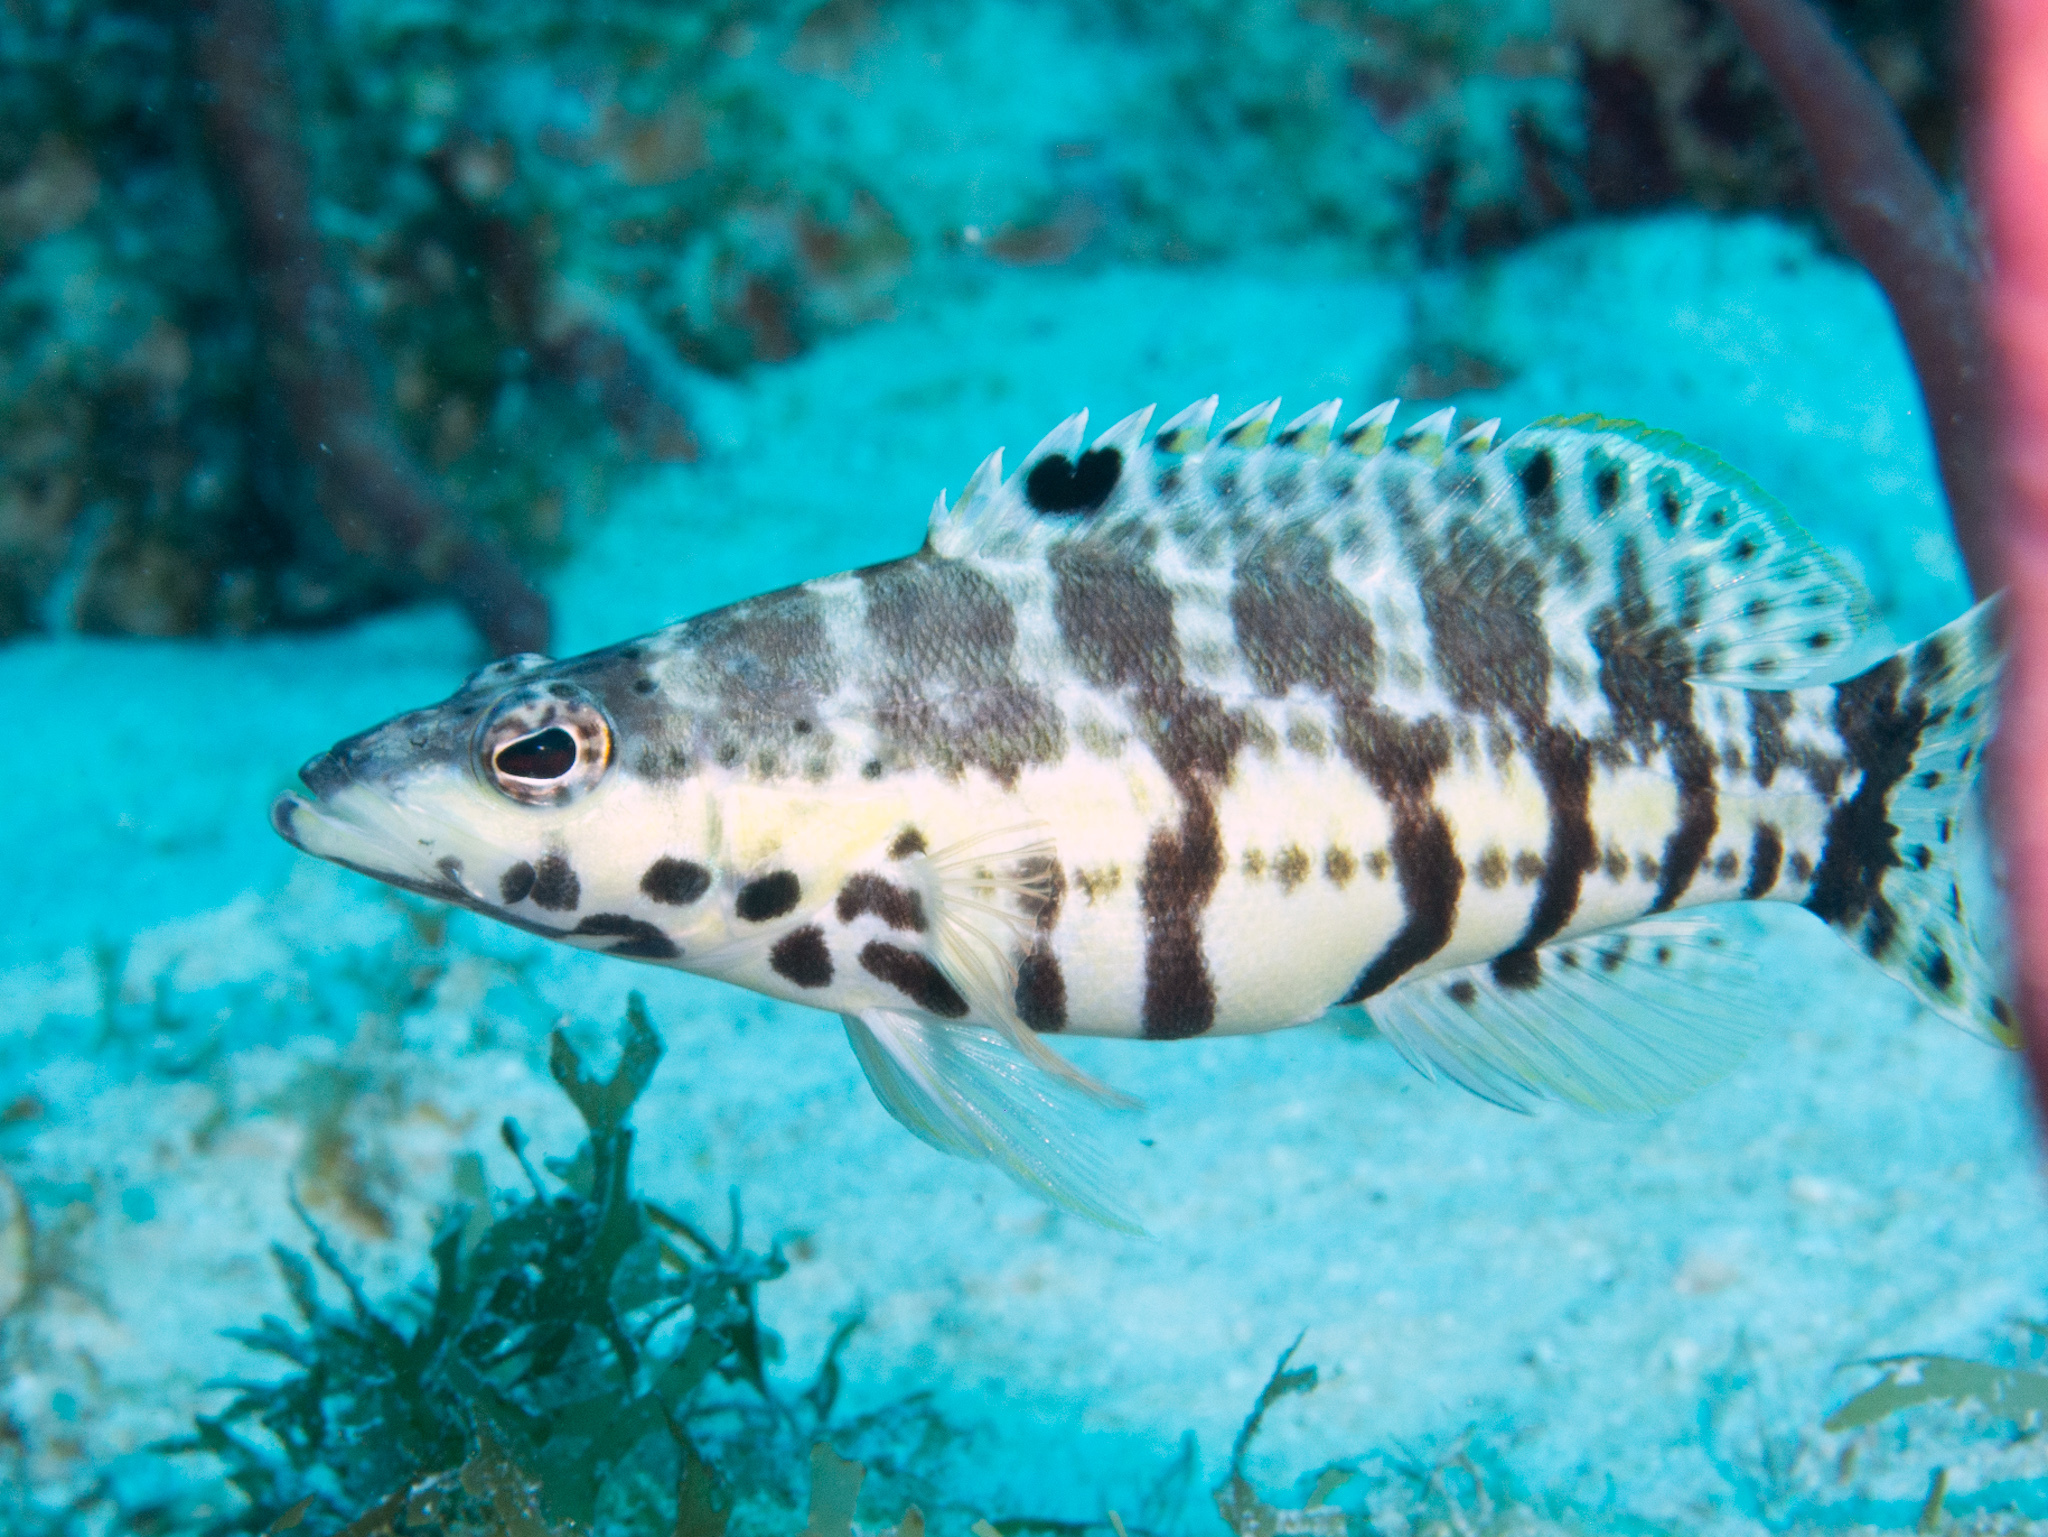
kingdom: Animalia
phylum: Chordata
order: Perciformes
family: Serranidae
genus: Serranus
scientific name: Serranus tigrinus
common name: Harlequin bass
